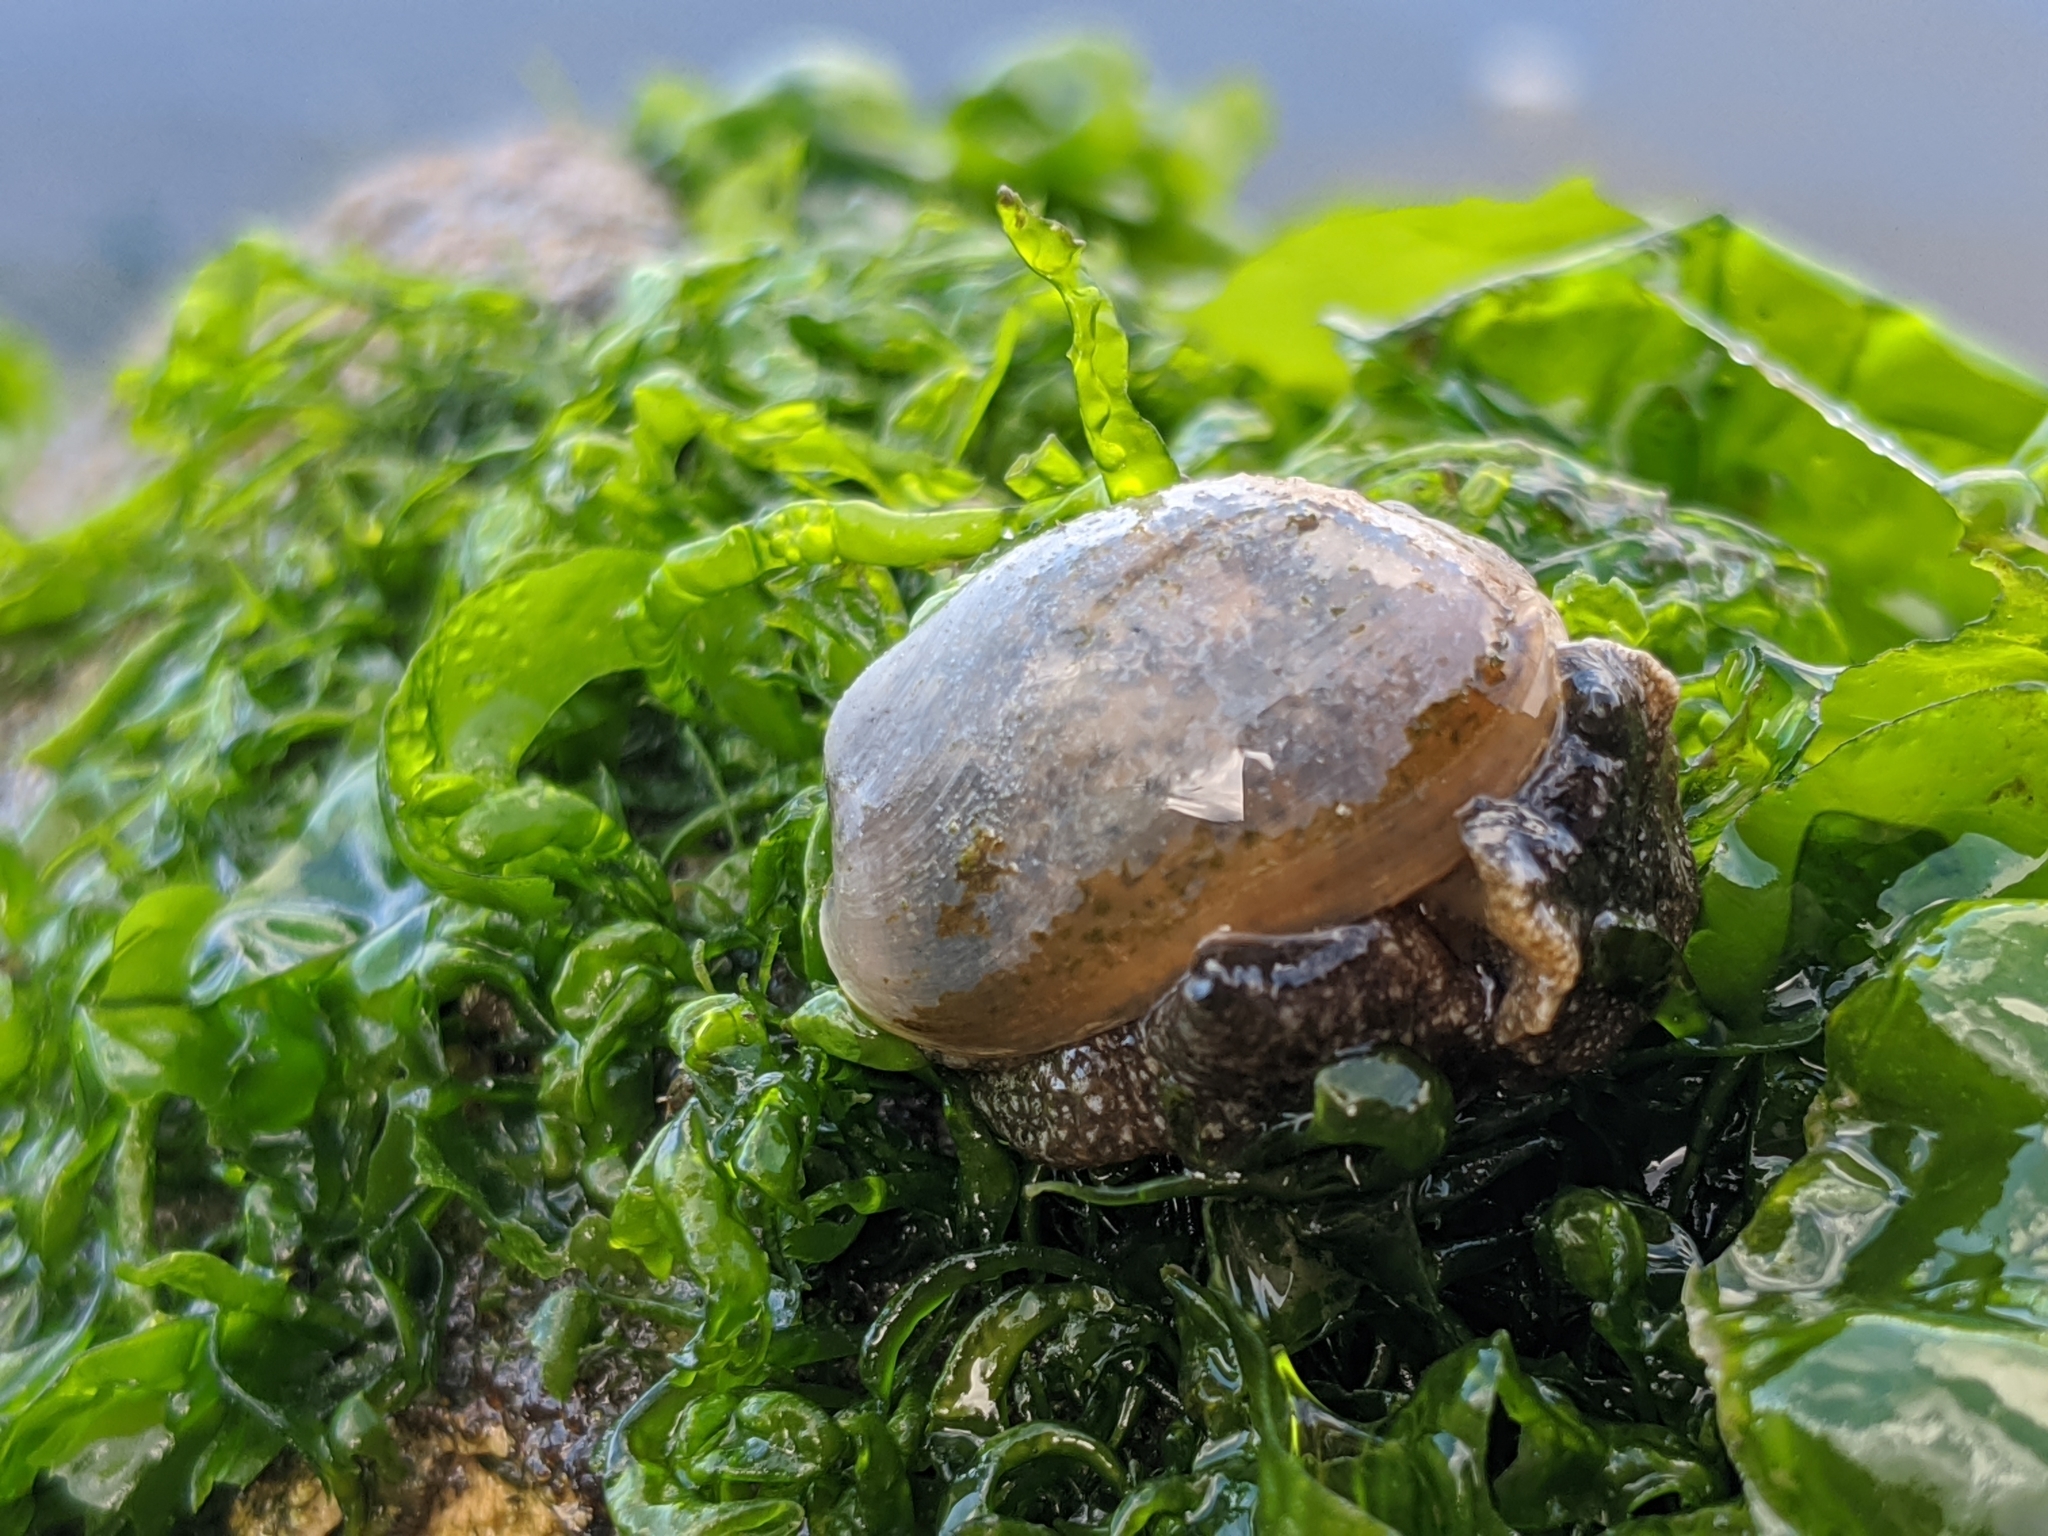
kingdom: Animalia
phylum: Mollusca
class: Gastropoda
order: Cephalaspidea
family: Haminoeidae
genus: Haminoea
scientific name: Haminoea virescens
